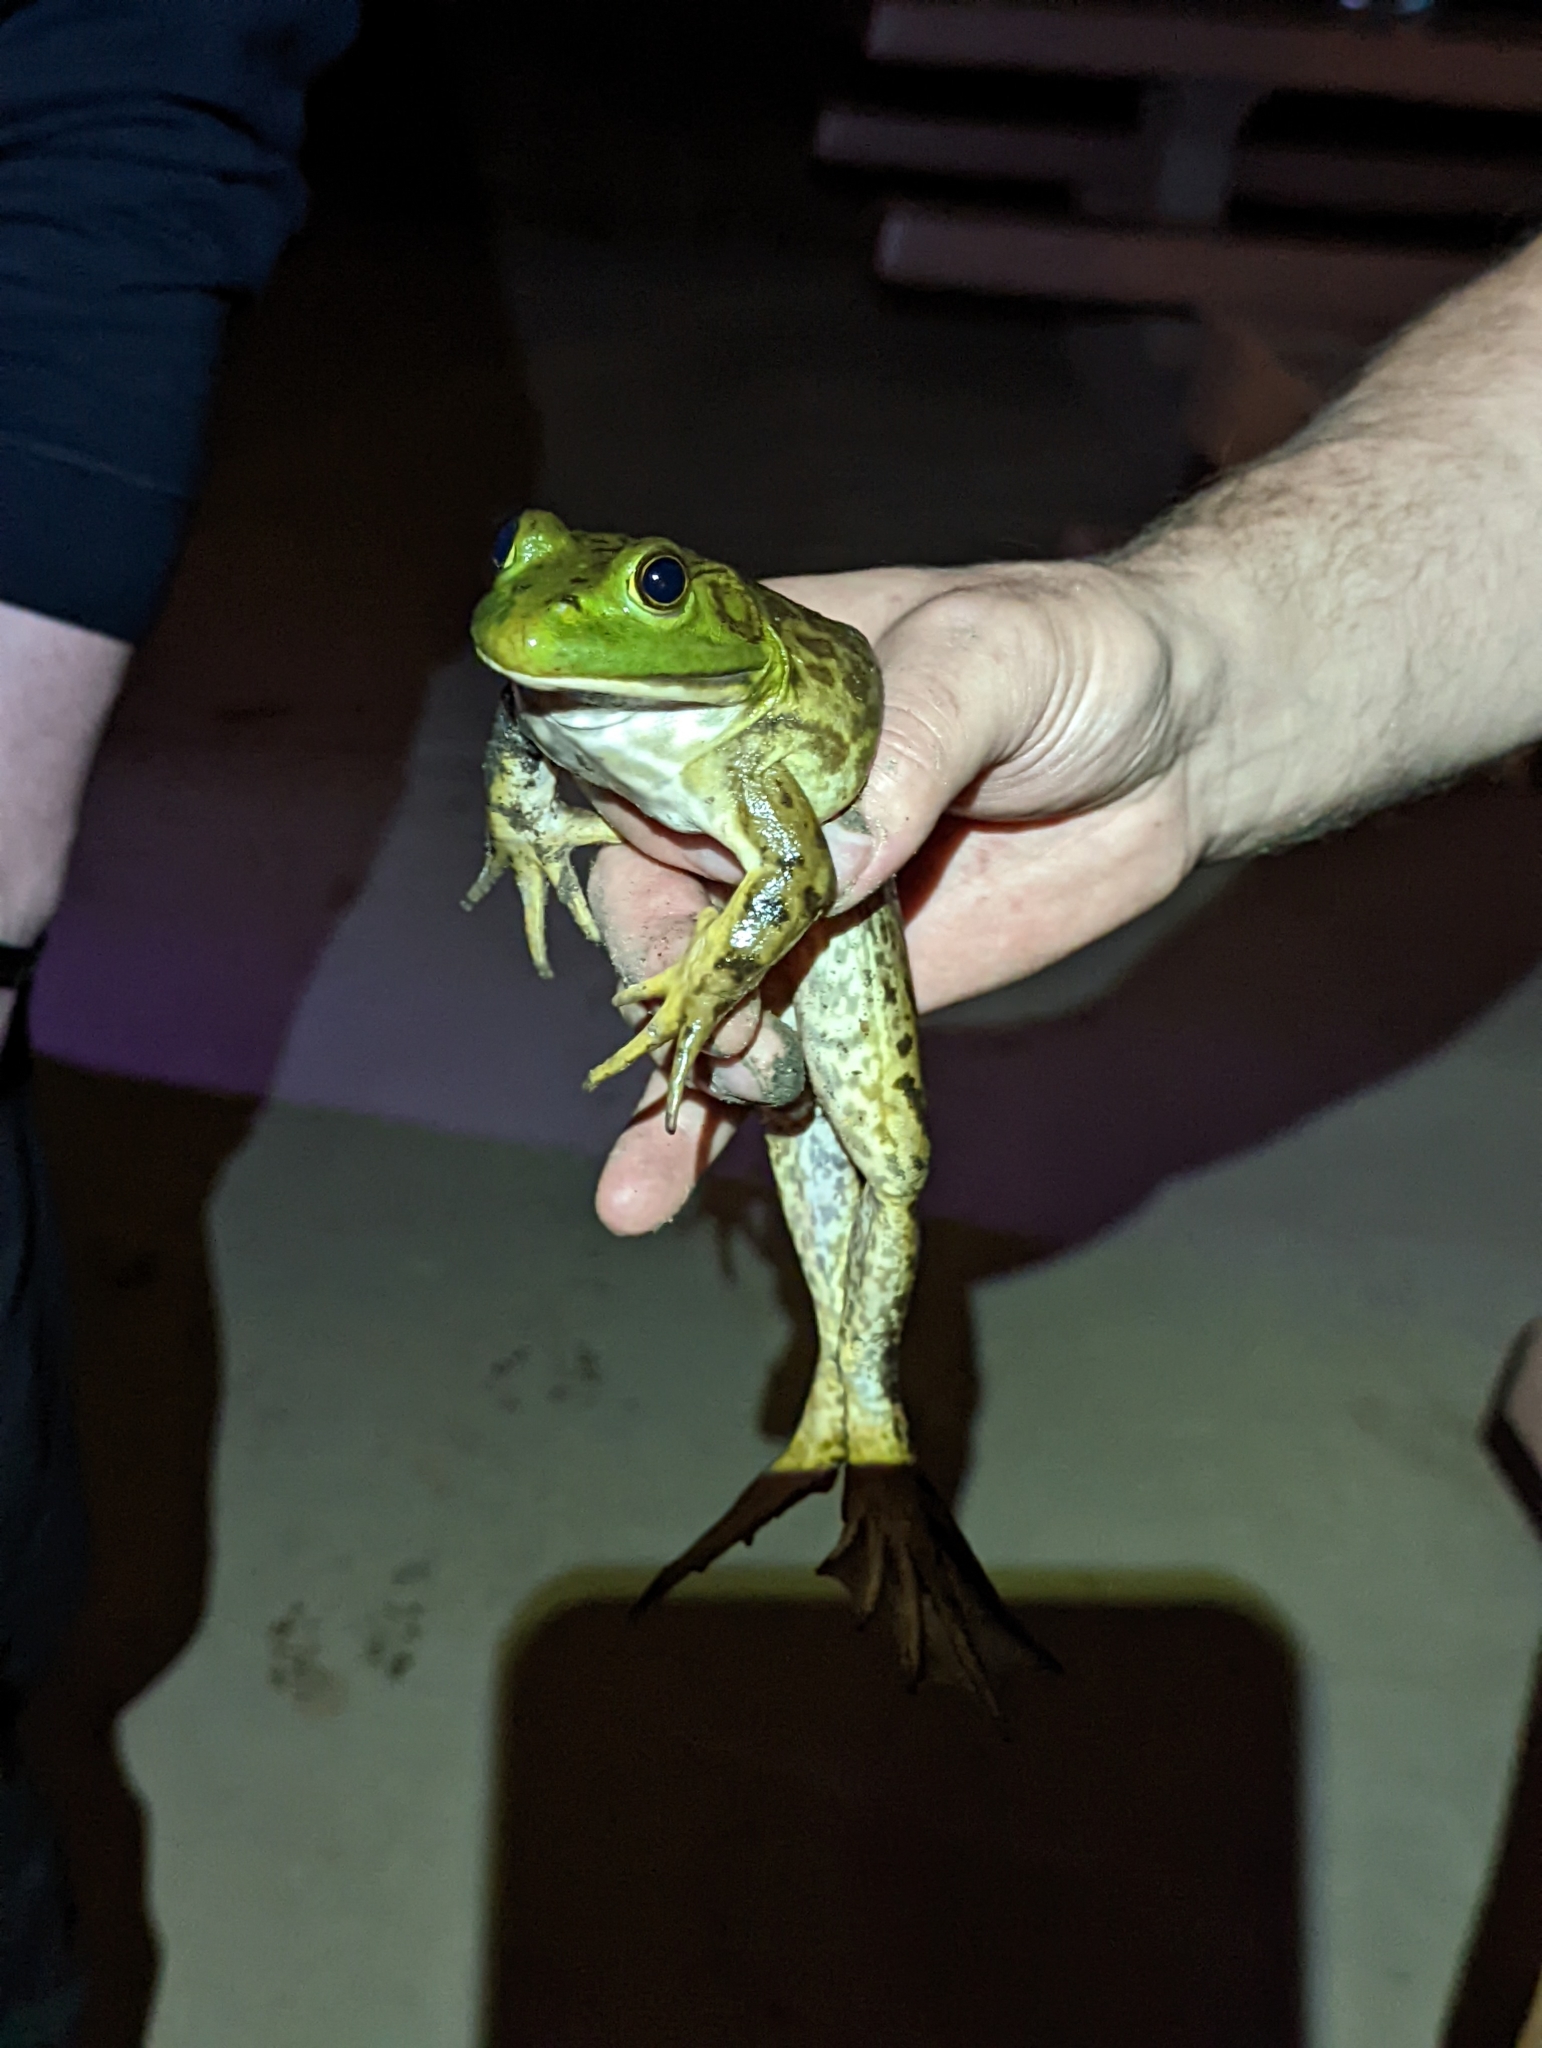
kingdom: Animalia
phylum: Chordata
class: Amphibia
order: Anura
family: Ranidae
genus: Lithobates
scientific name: Lithobates catesbeianus
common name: American bullfrog
